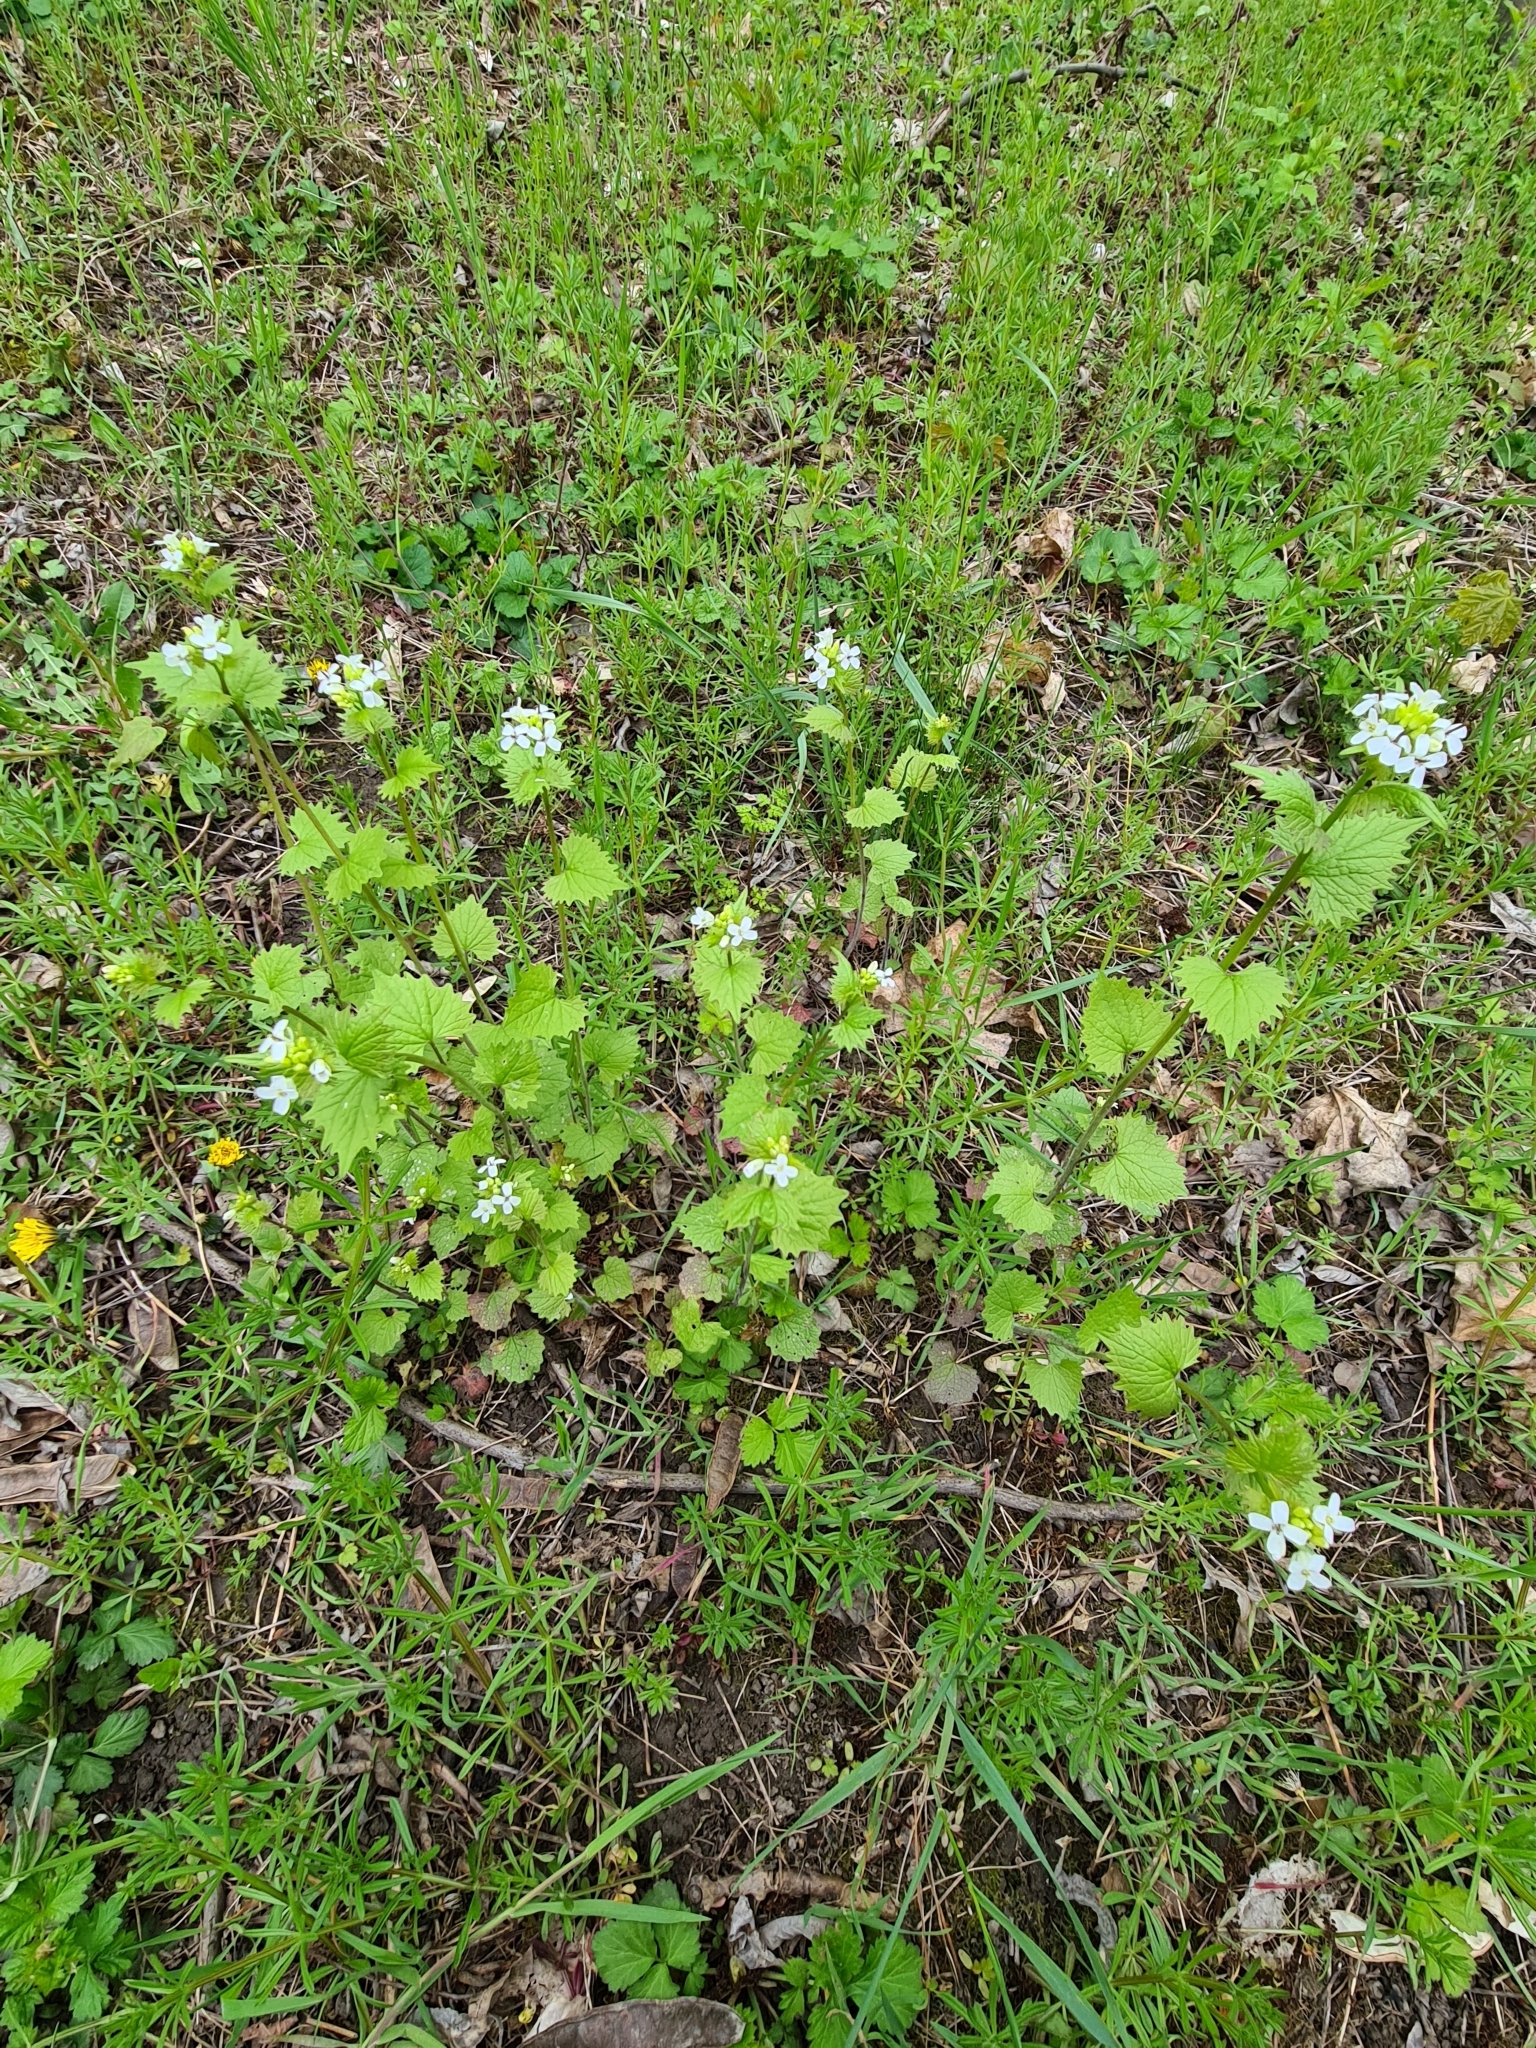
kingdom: Plantae
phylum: Tracheophyta
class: Magnoliopsida
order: Brassicales
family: Brassicaceae
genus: Alliaria
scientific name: Alliaria petiolata
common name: Garlic mustard
